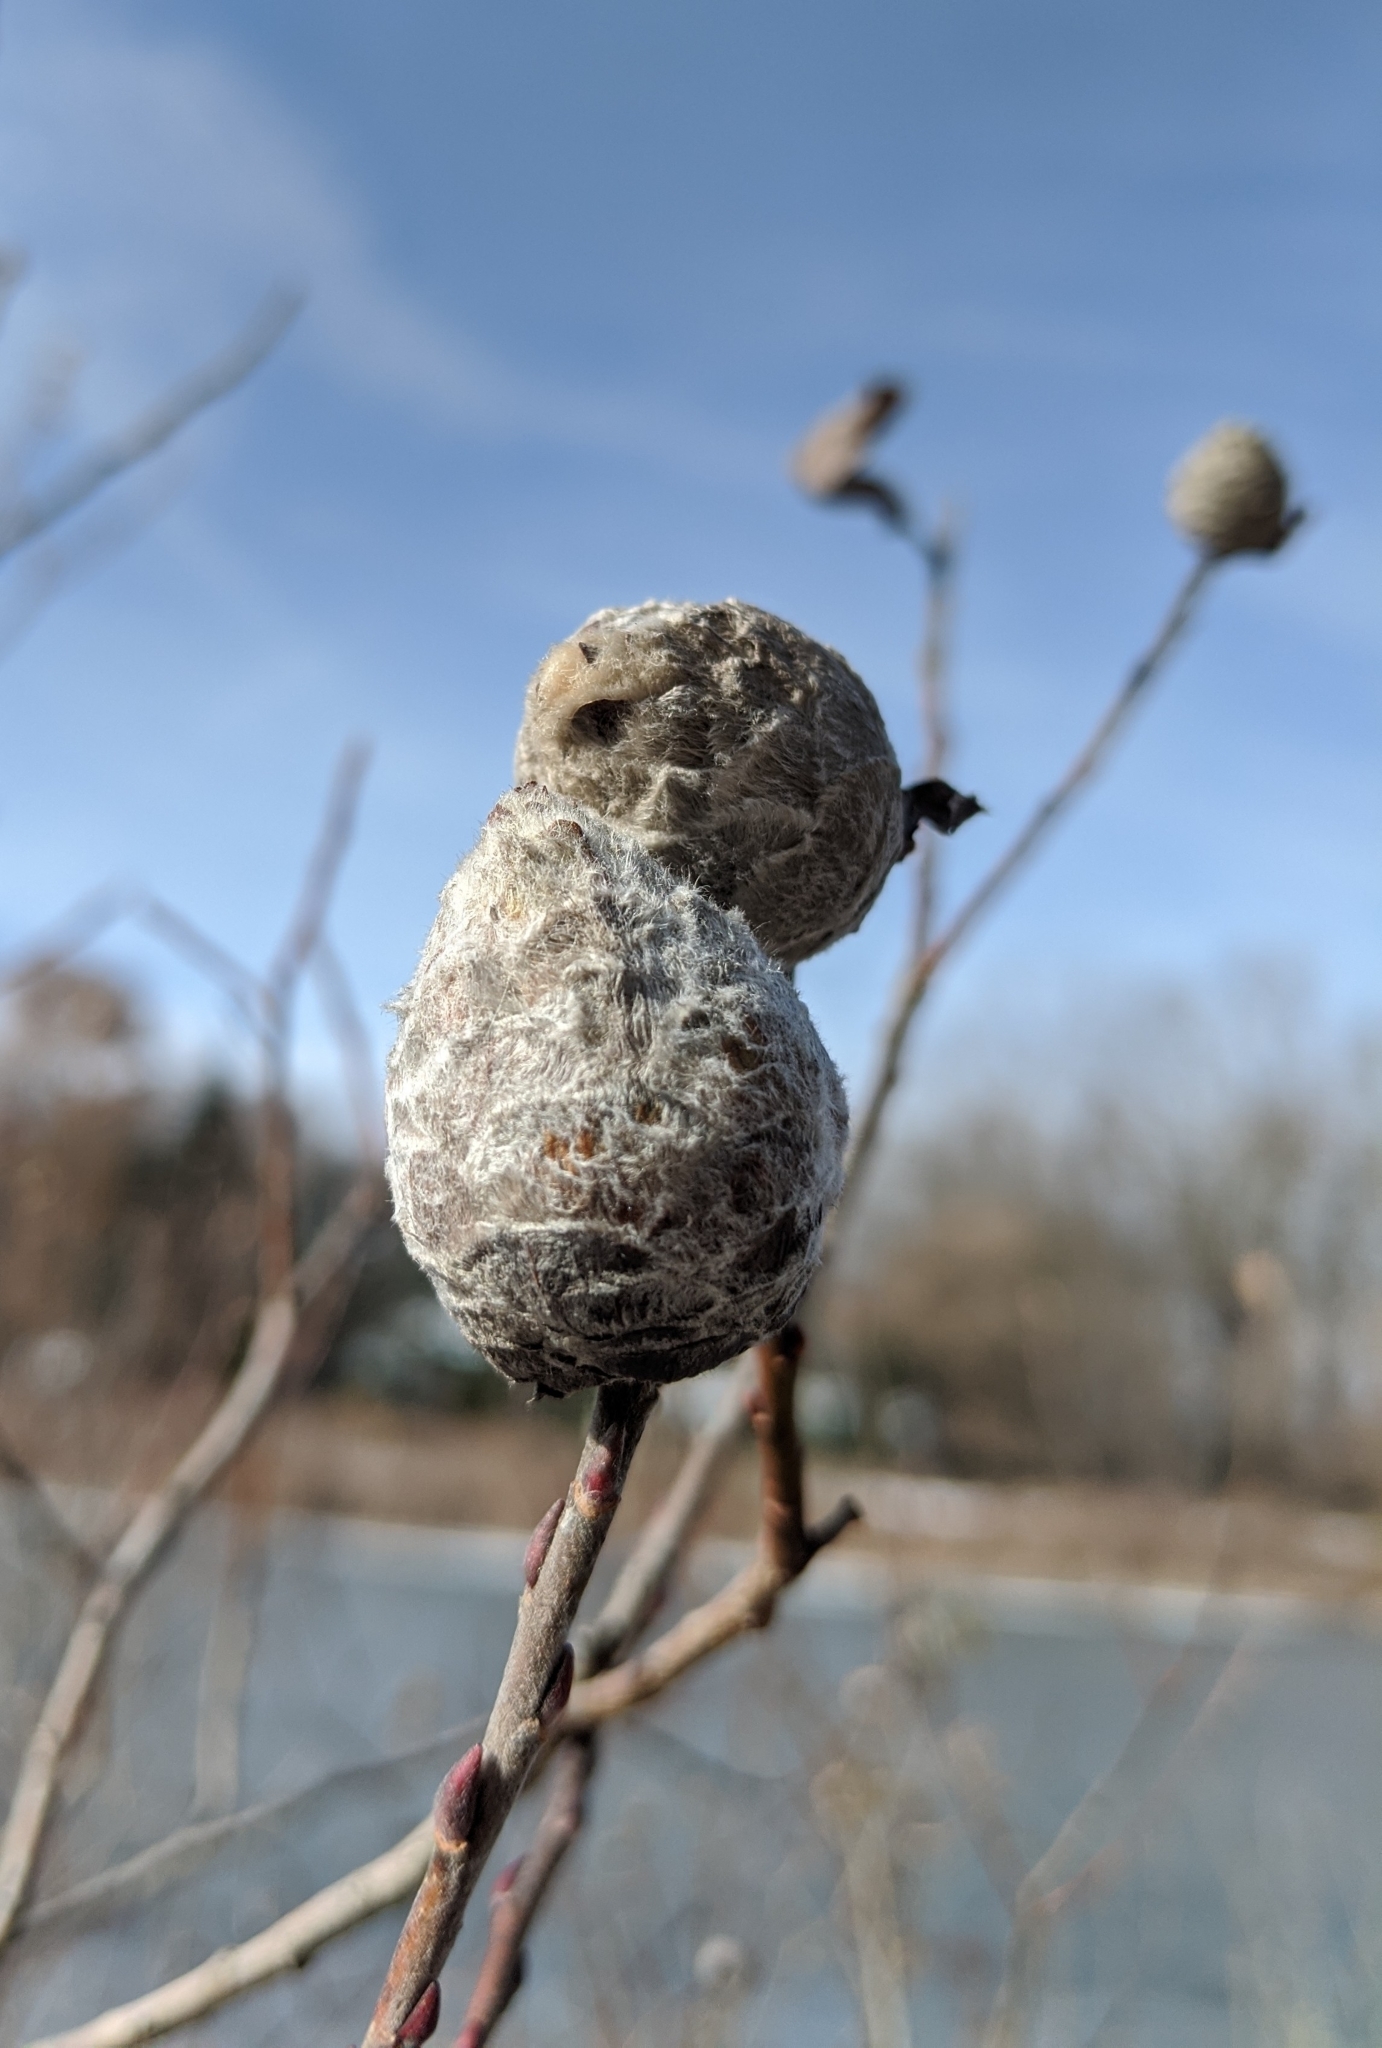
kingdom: Animalia
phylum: Arthropoda
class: Insecta
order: Diptera
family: Cecidomyiidae
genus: Rabdophaga
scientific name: Rabdophaga strobiloides
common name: Willow pinecone gall midge
